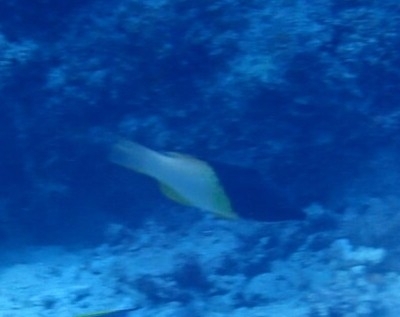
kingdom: Animalia
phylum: Chordata
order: Perciformes
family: Labridae
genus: Bodianus
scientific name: Bodianus mesothorax
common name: Coral hogfish
